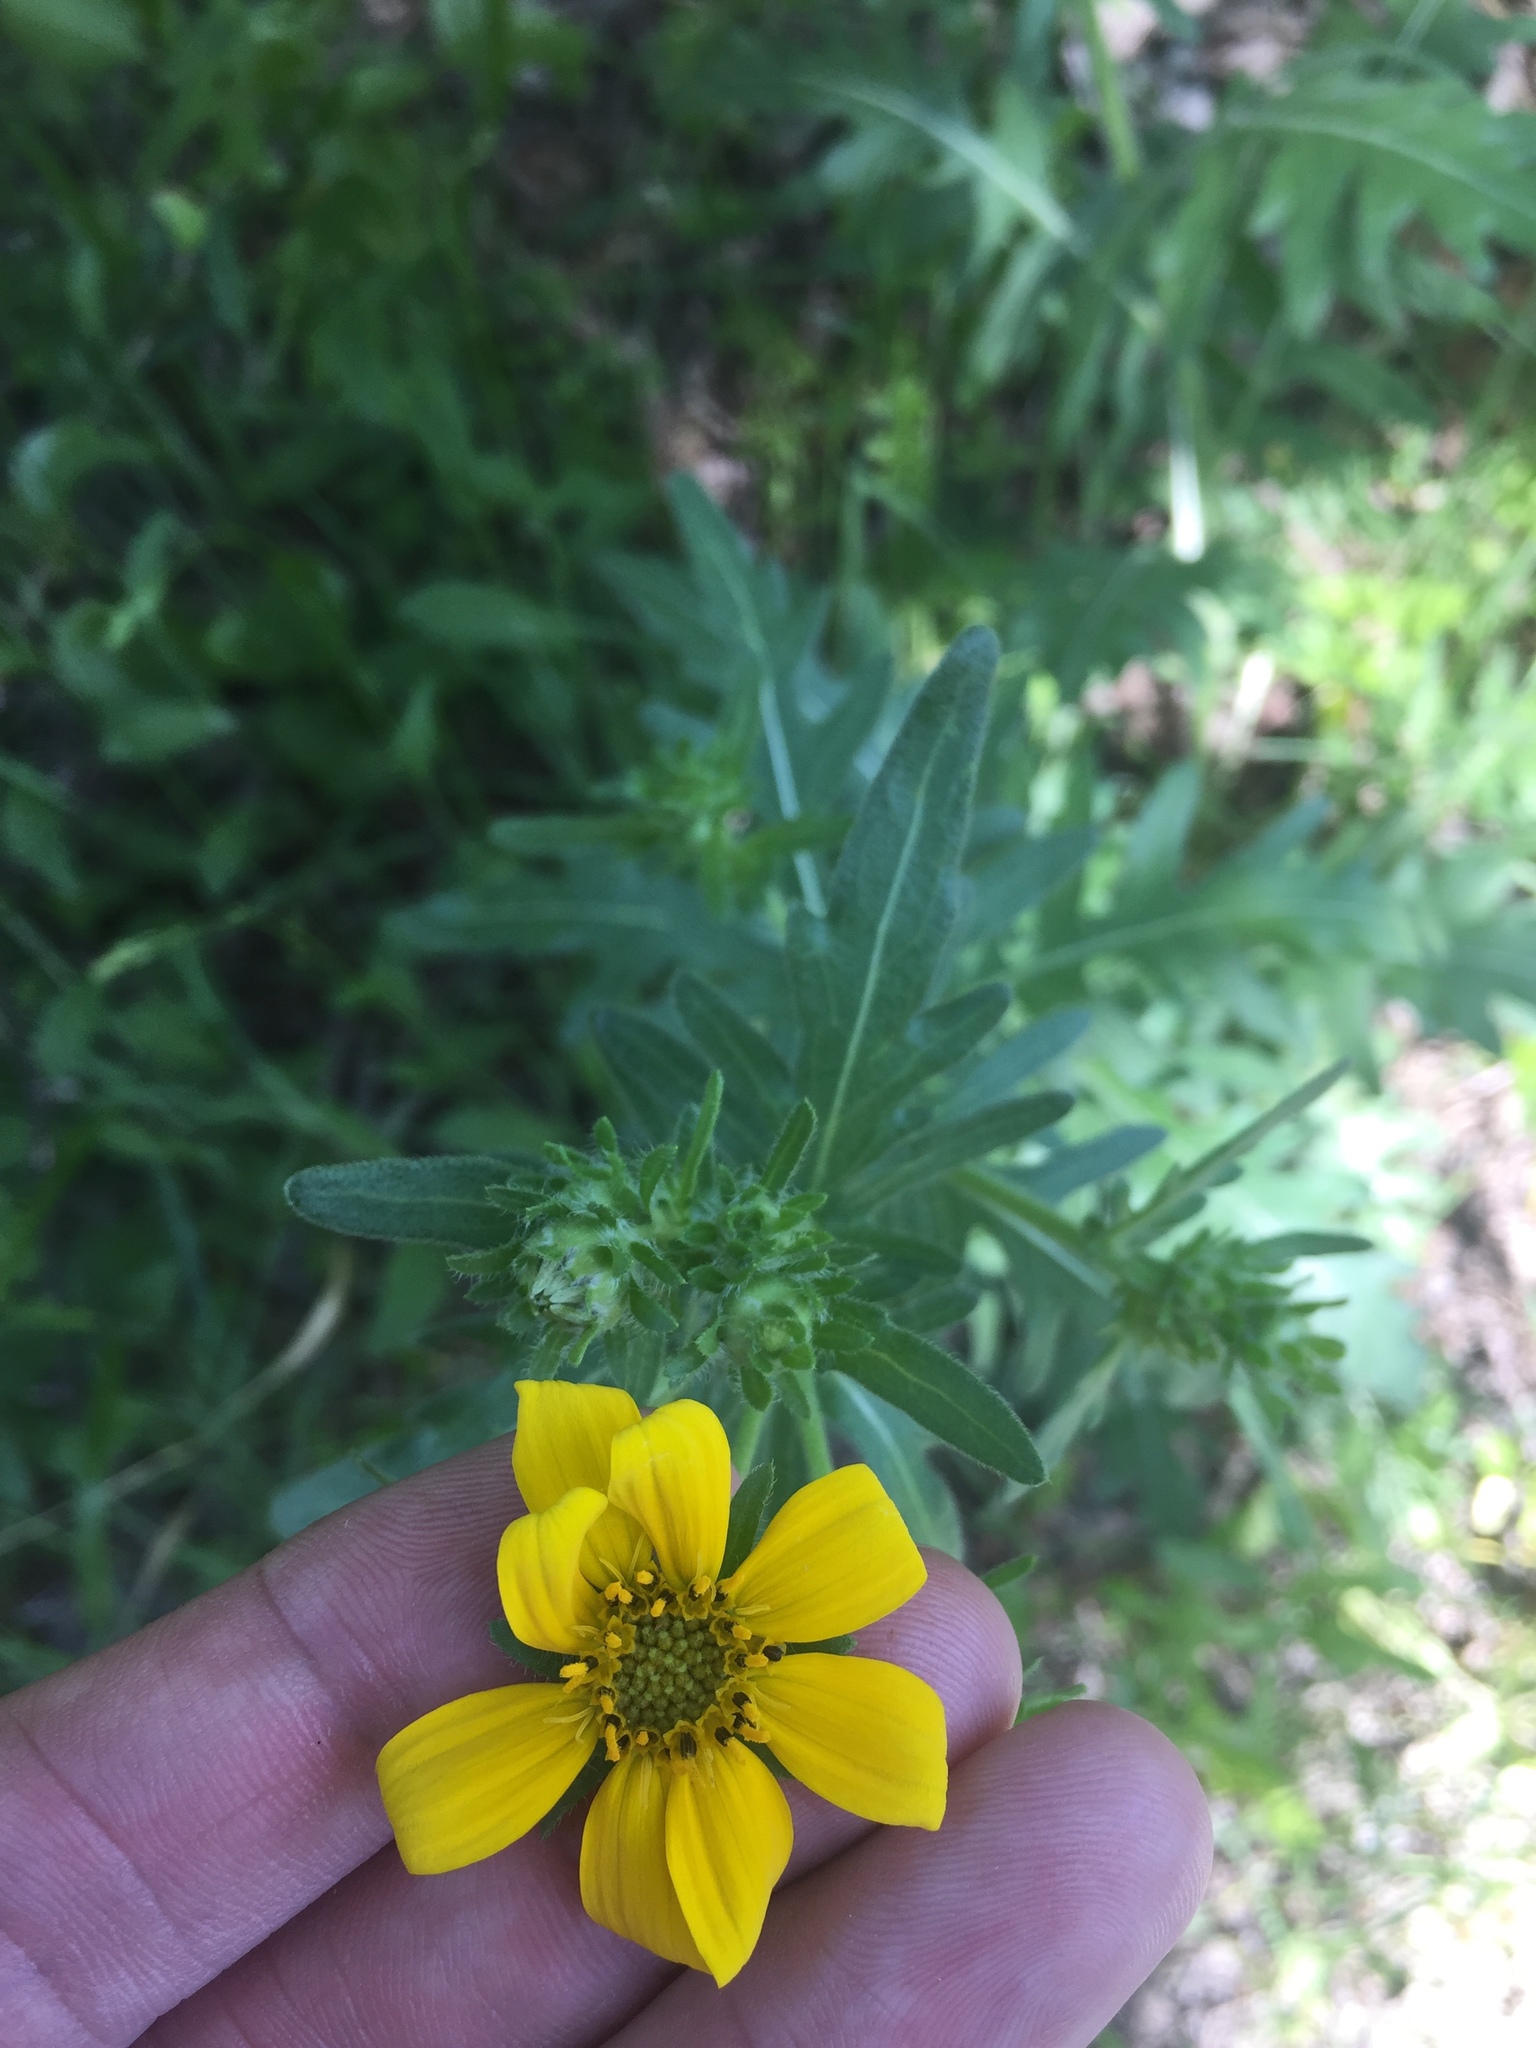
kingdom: Plantae
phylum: Tracheophyta
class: Magnoliopsida
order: Asterales
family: Asteraceae
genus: Engelmannia
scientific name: Engelmannia peristenia
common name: Engelmann's daisy
